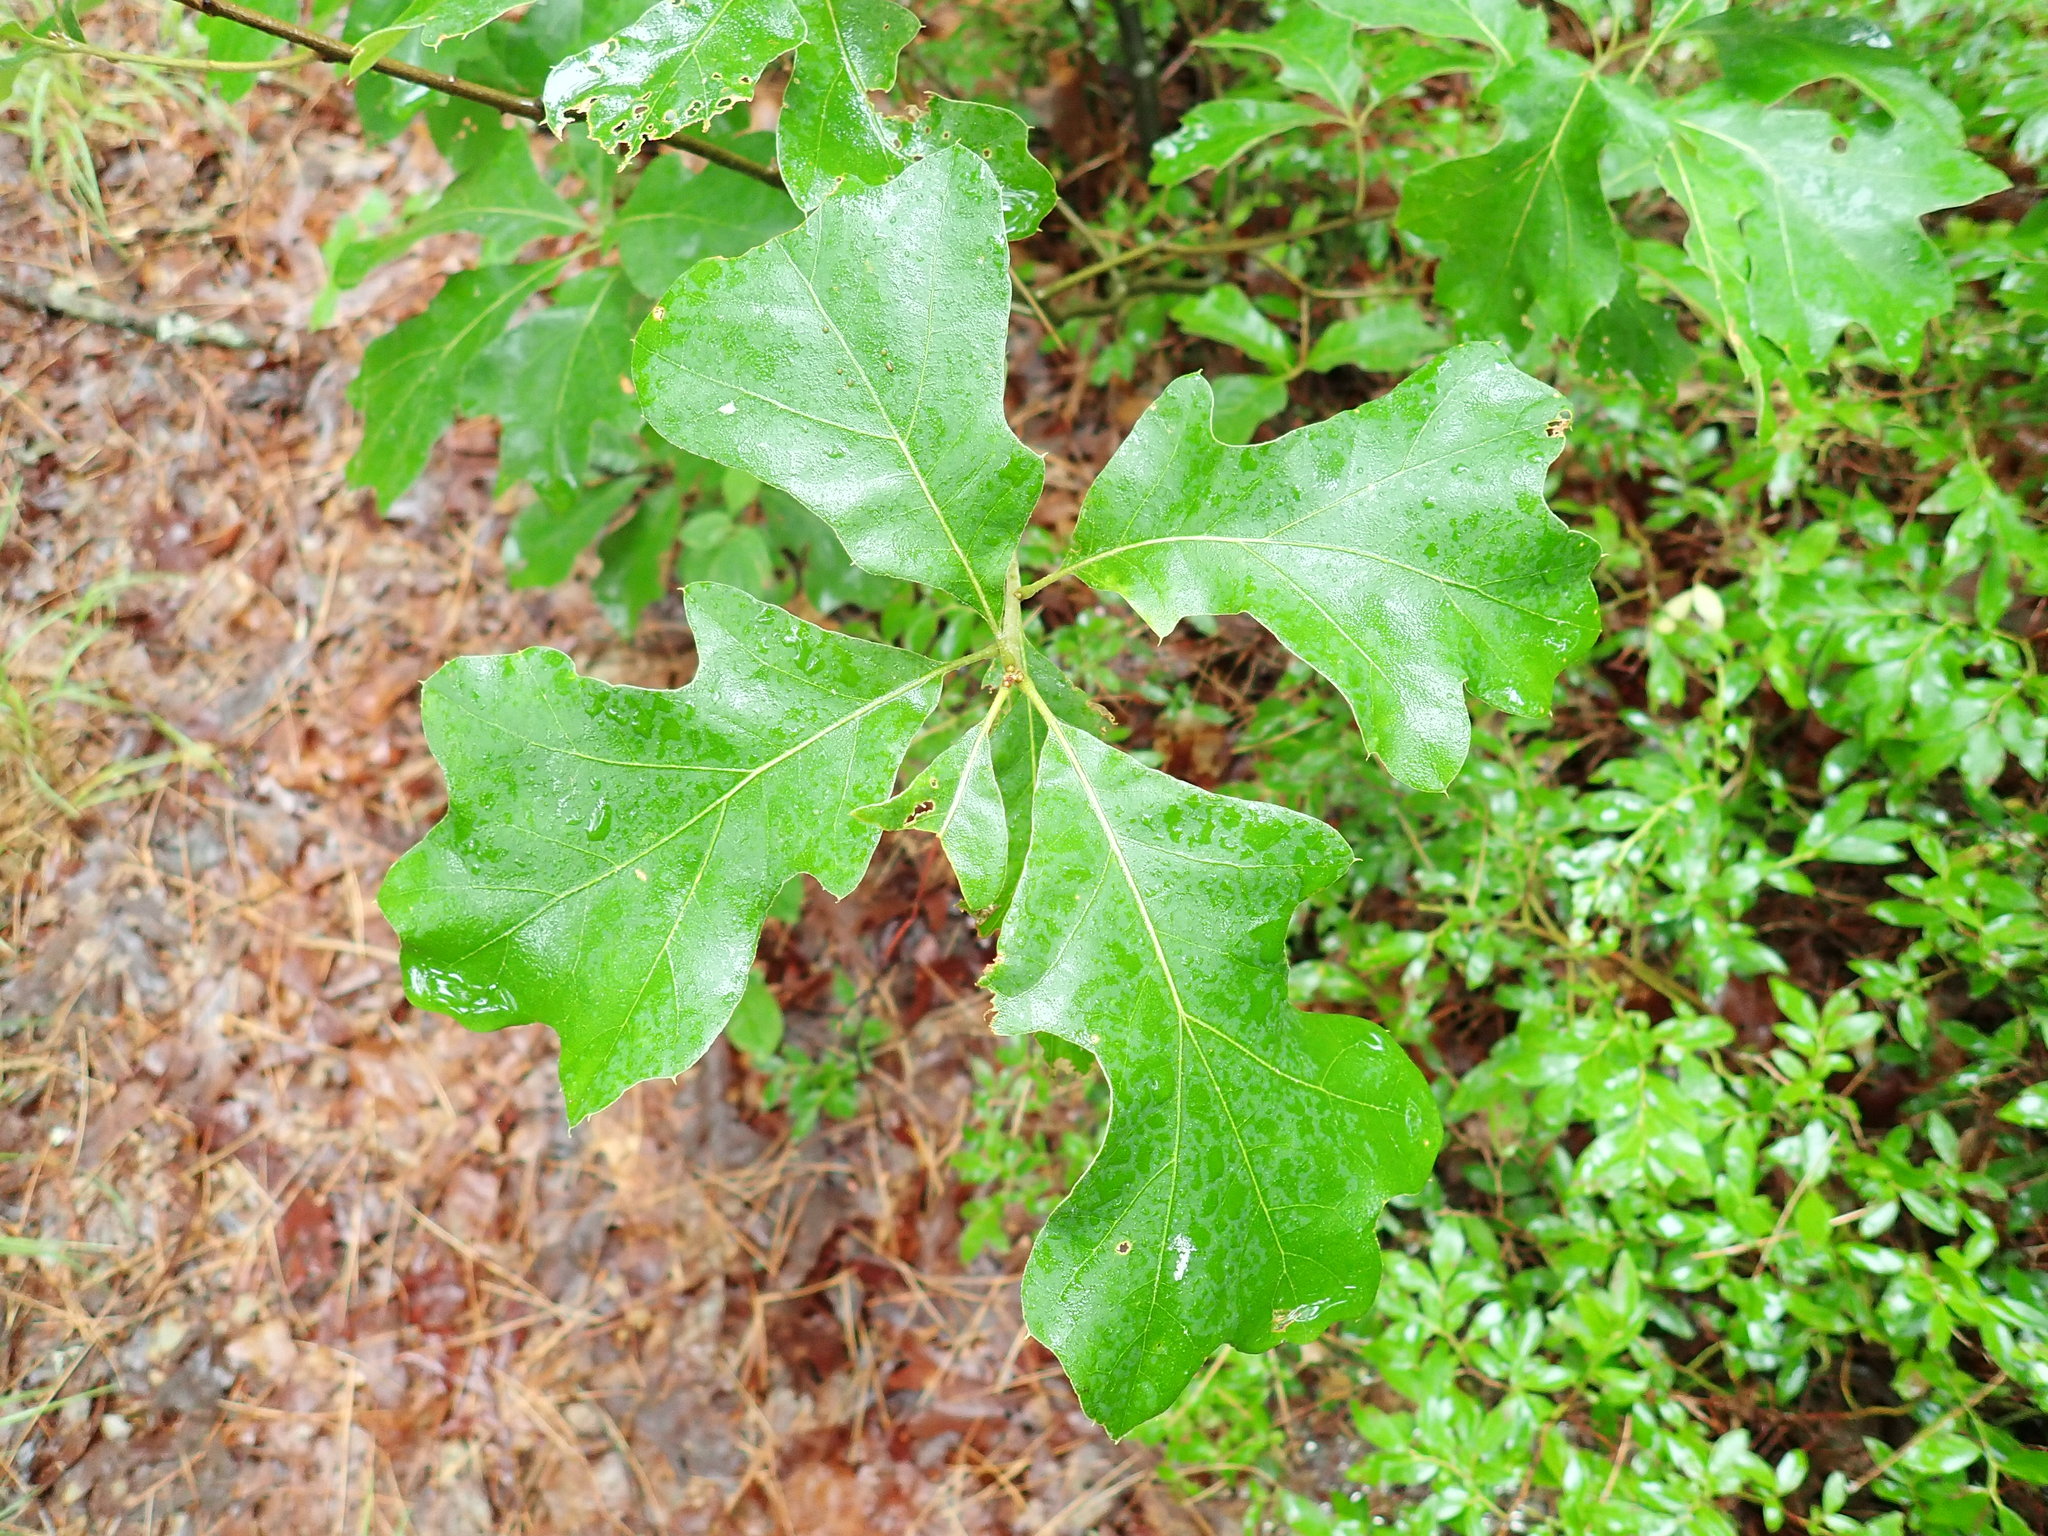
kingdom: Plantae
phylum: Tracheophyta
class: Magnoliopsida
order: Fagales
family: Fagaceae
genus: Quercus
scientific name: Quercus ilicifolia
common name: Bear oak
